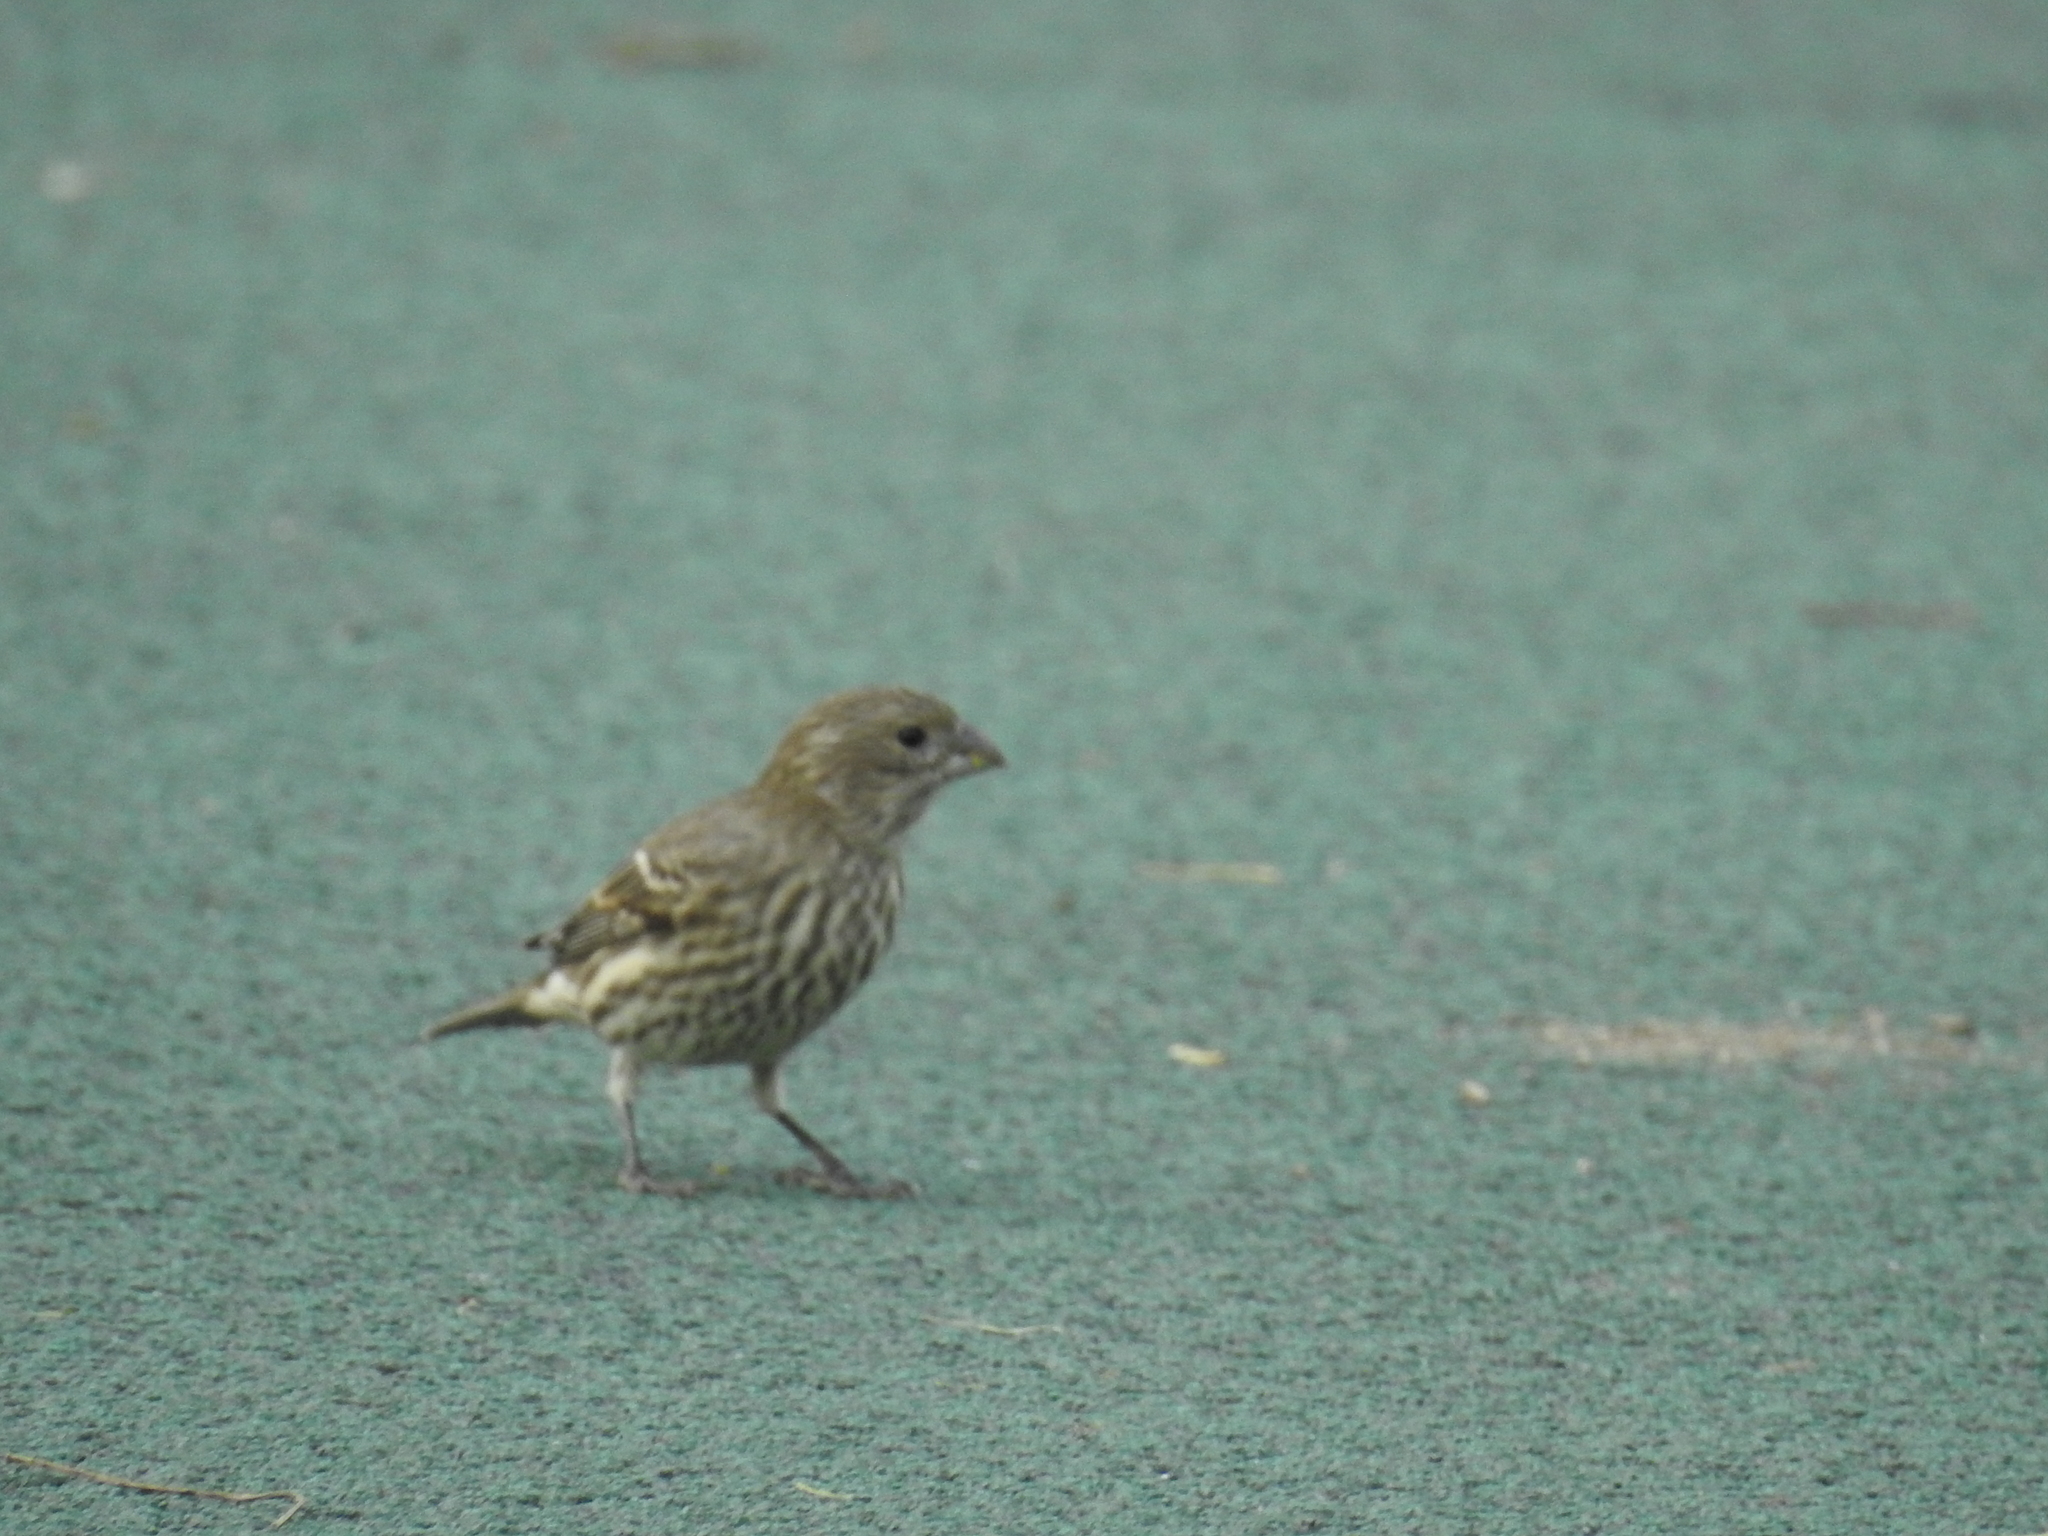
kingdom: Animalia
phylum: Chordata
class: Aves
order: Passeriformes
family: Fringillidae
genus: Haemorhous
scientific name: Haemorhous mexicanus
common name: House finch
